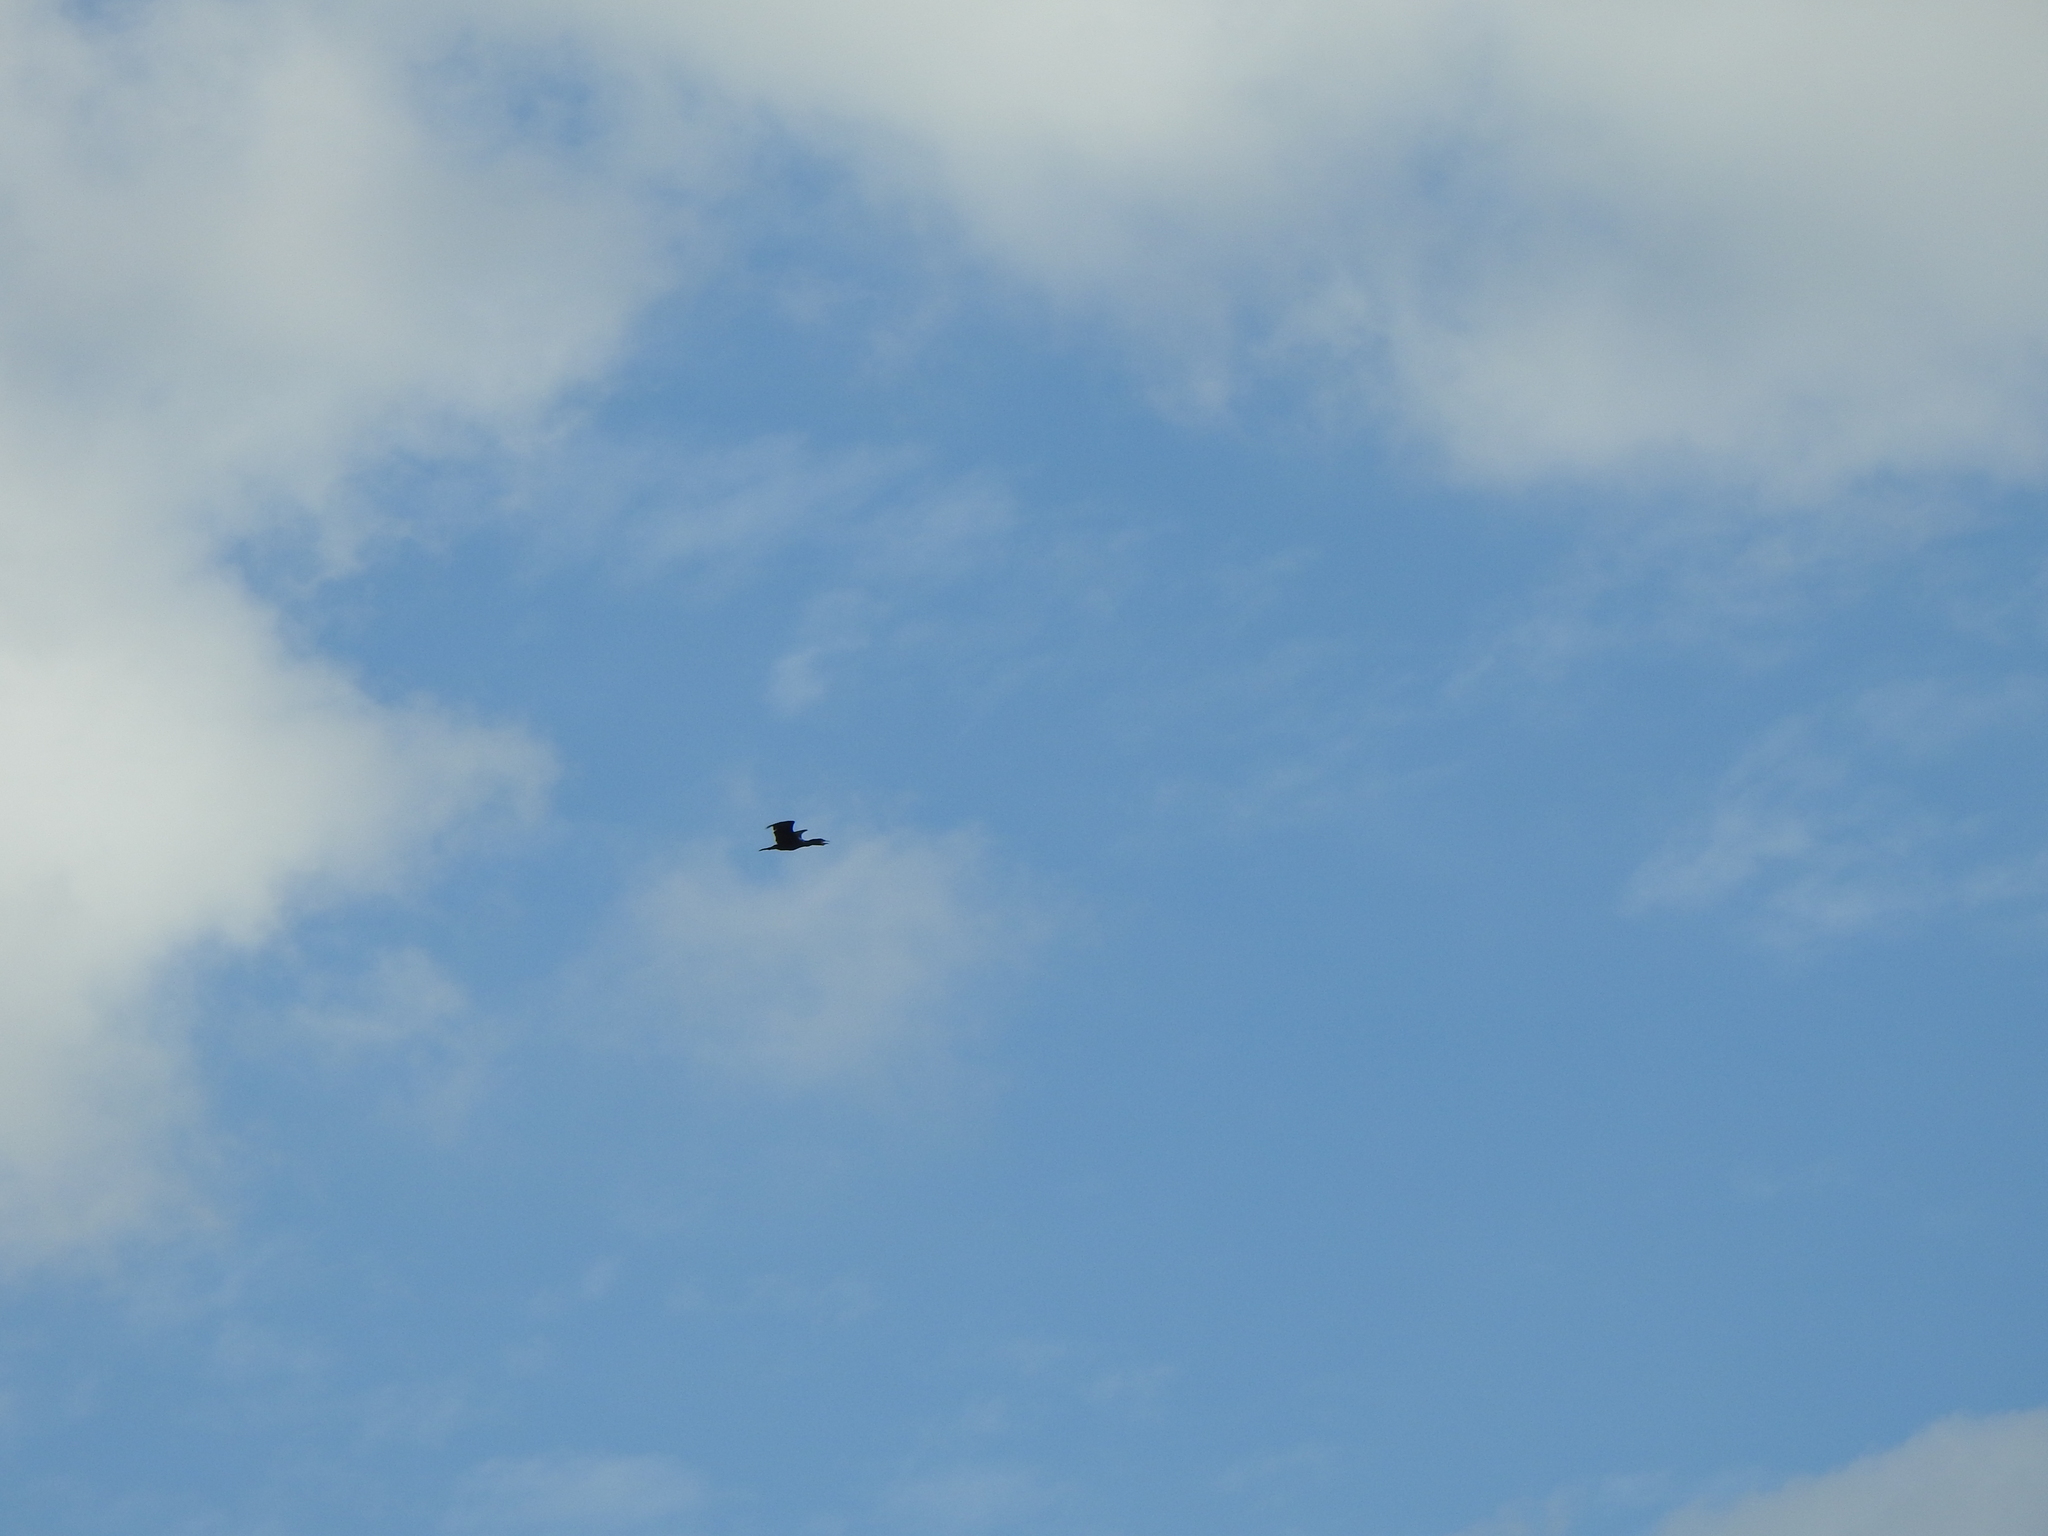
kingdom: Animalia
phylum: Chordata
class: Aves
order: Suliformes
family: Phalacrocoracidae
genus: Phalacrocorax
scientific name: Phalacrocorax auritus
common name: Double-crested cormorant
